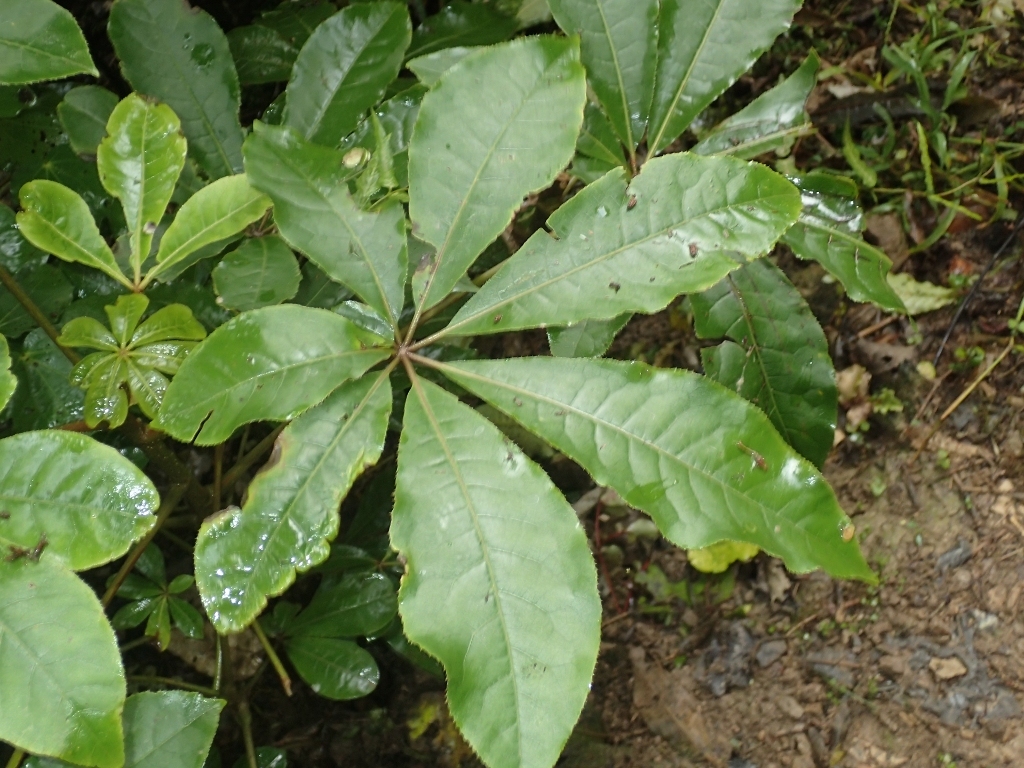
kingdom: Plantae
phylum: Tracheophyta
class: Magnoliopsida
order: Apiales
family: Araliaceae
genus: Schefflera
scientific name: Schefflera digitata
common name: Pate
